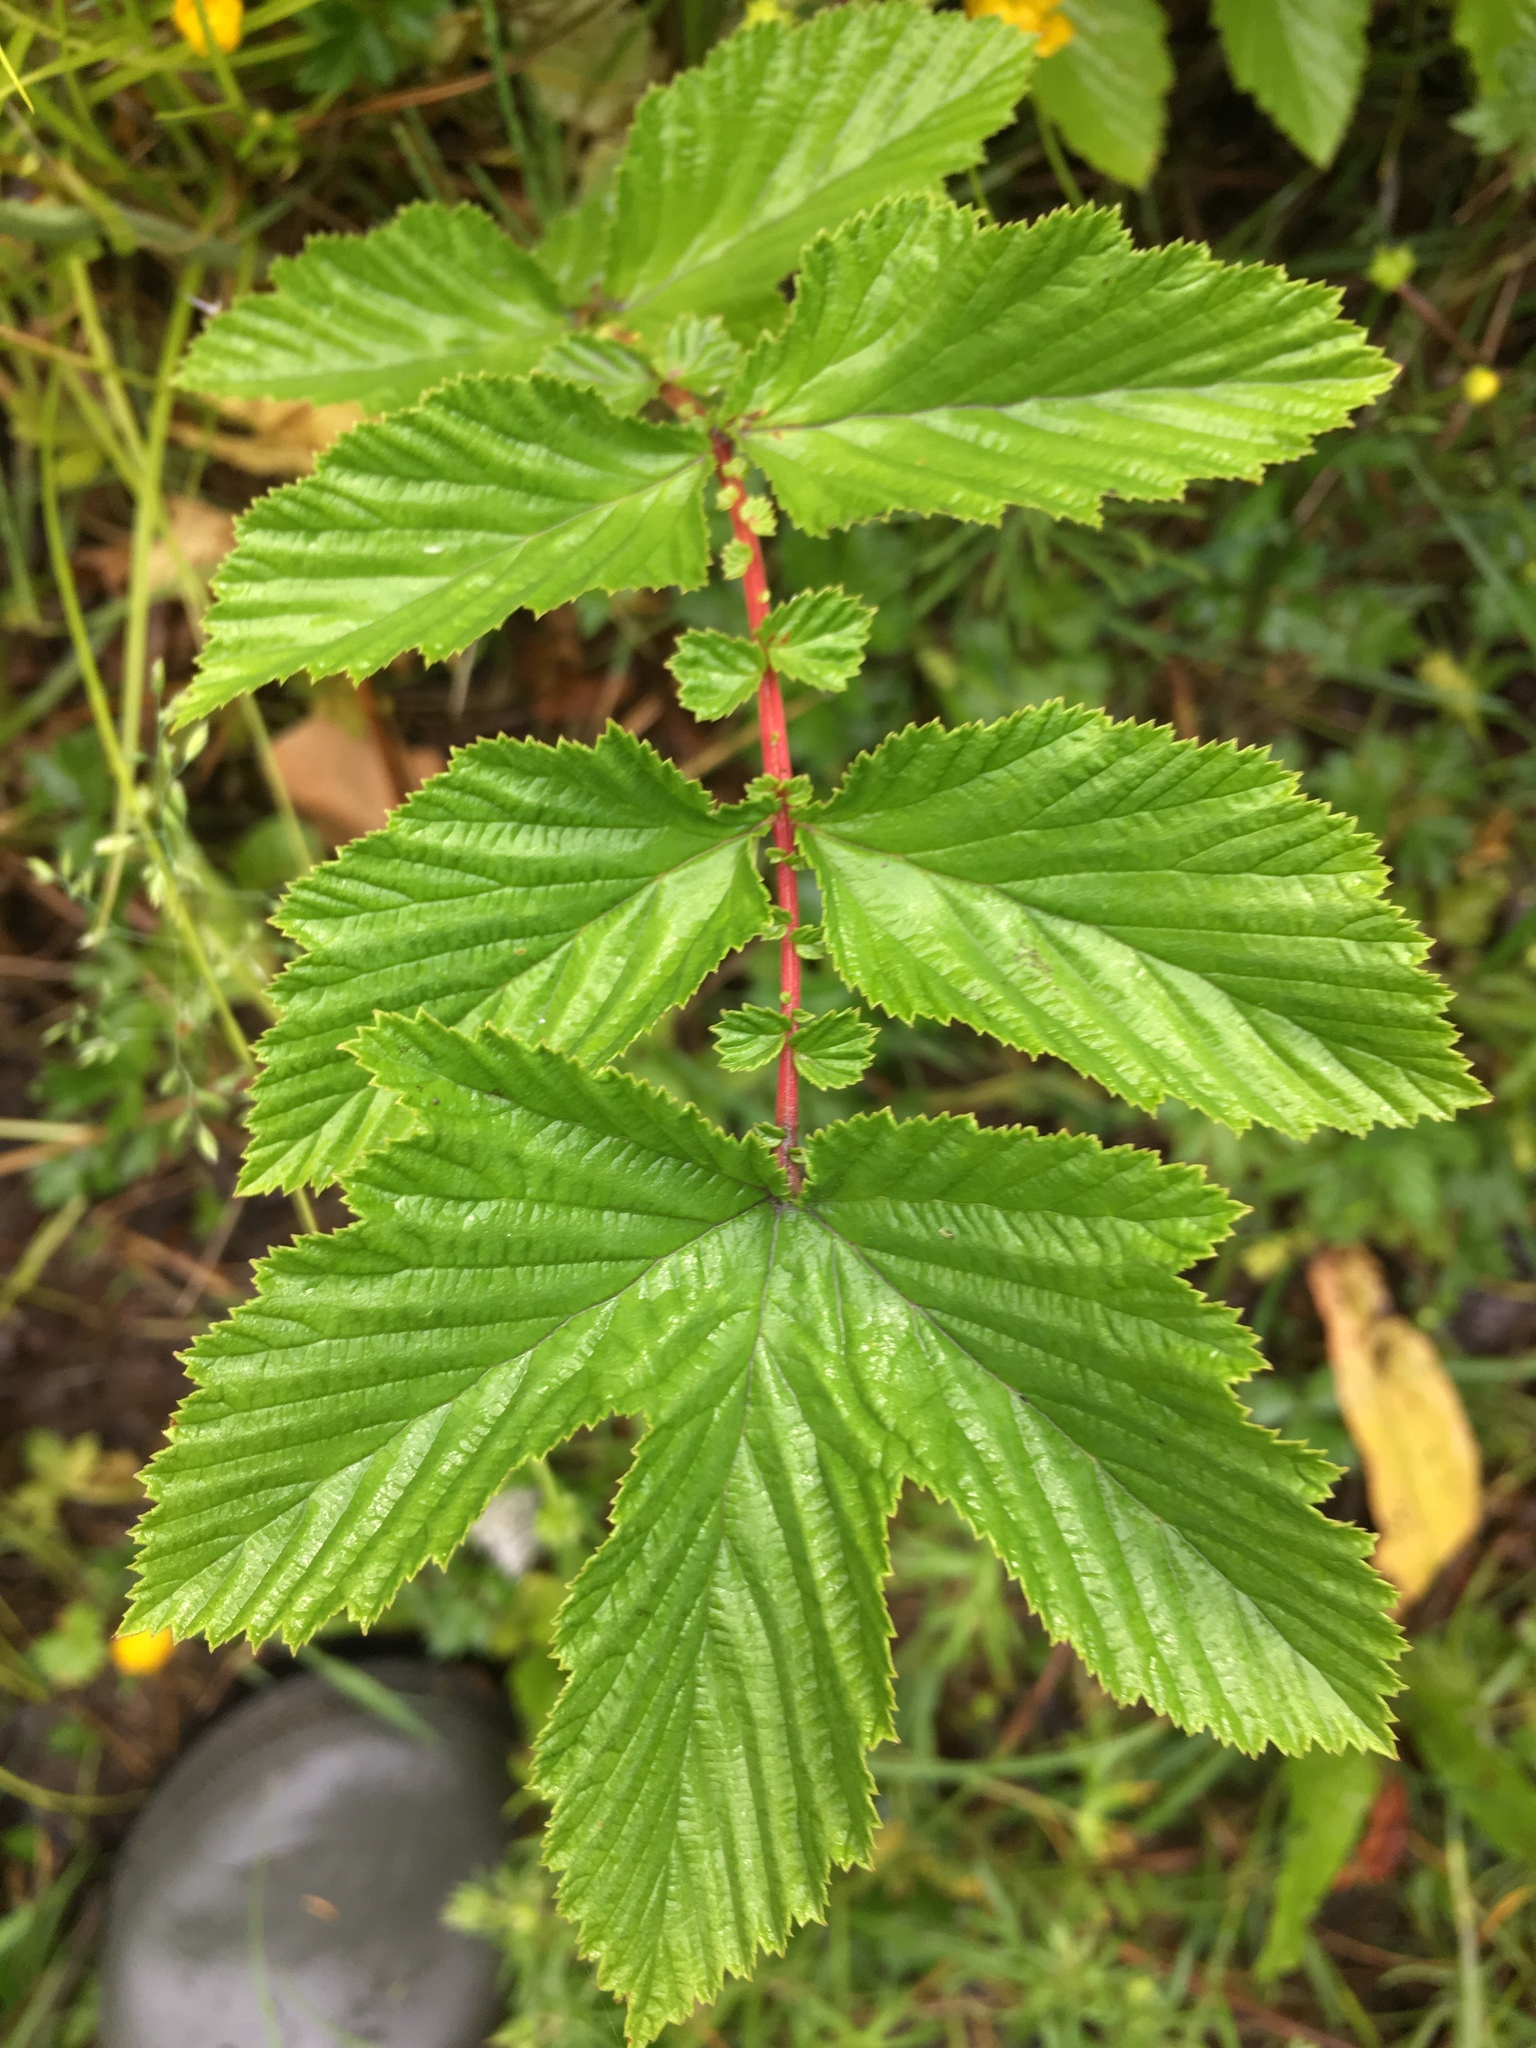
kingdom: Plantae
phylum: Tracheophyta
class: Magnoliopsida
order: Rosales
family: Rosaceae
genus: Filipendula
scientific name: Filipendula ulmaria
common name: Meadowsweet
